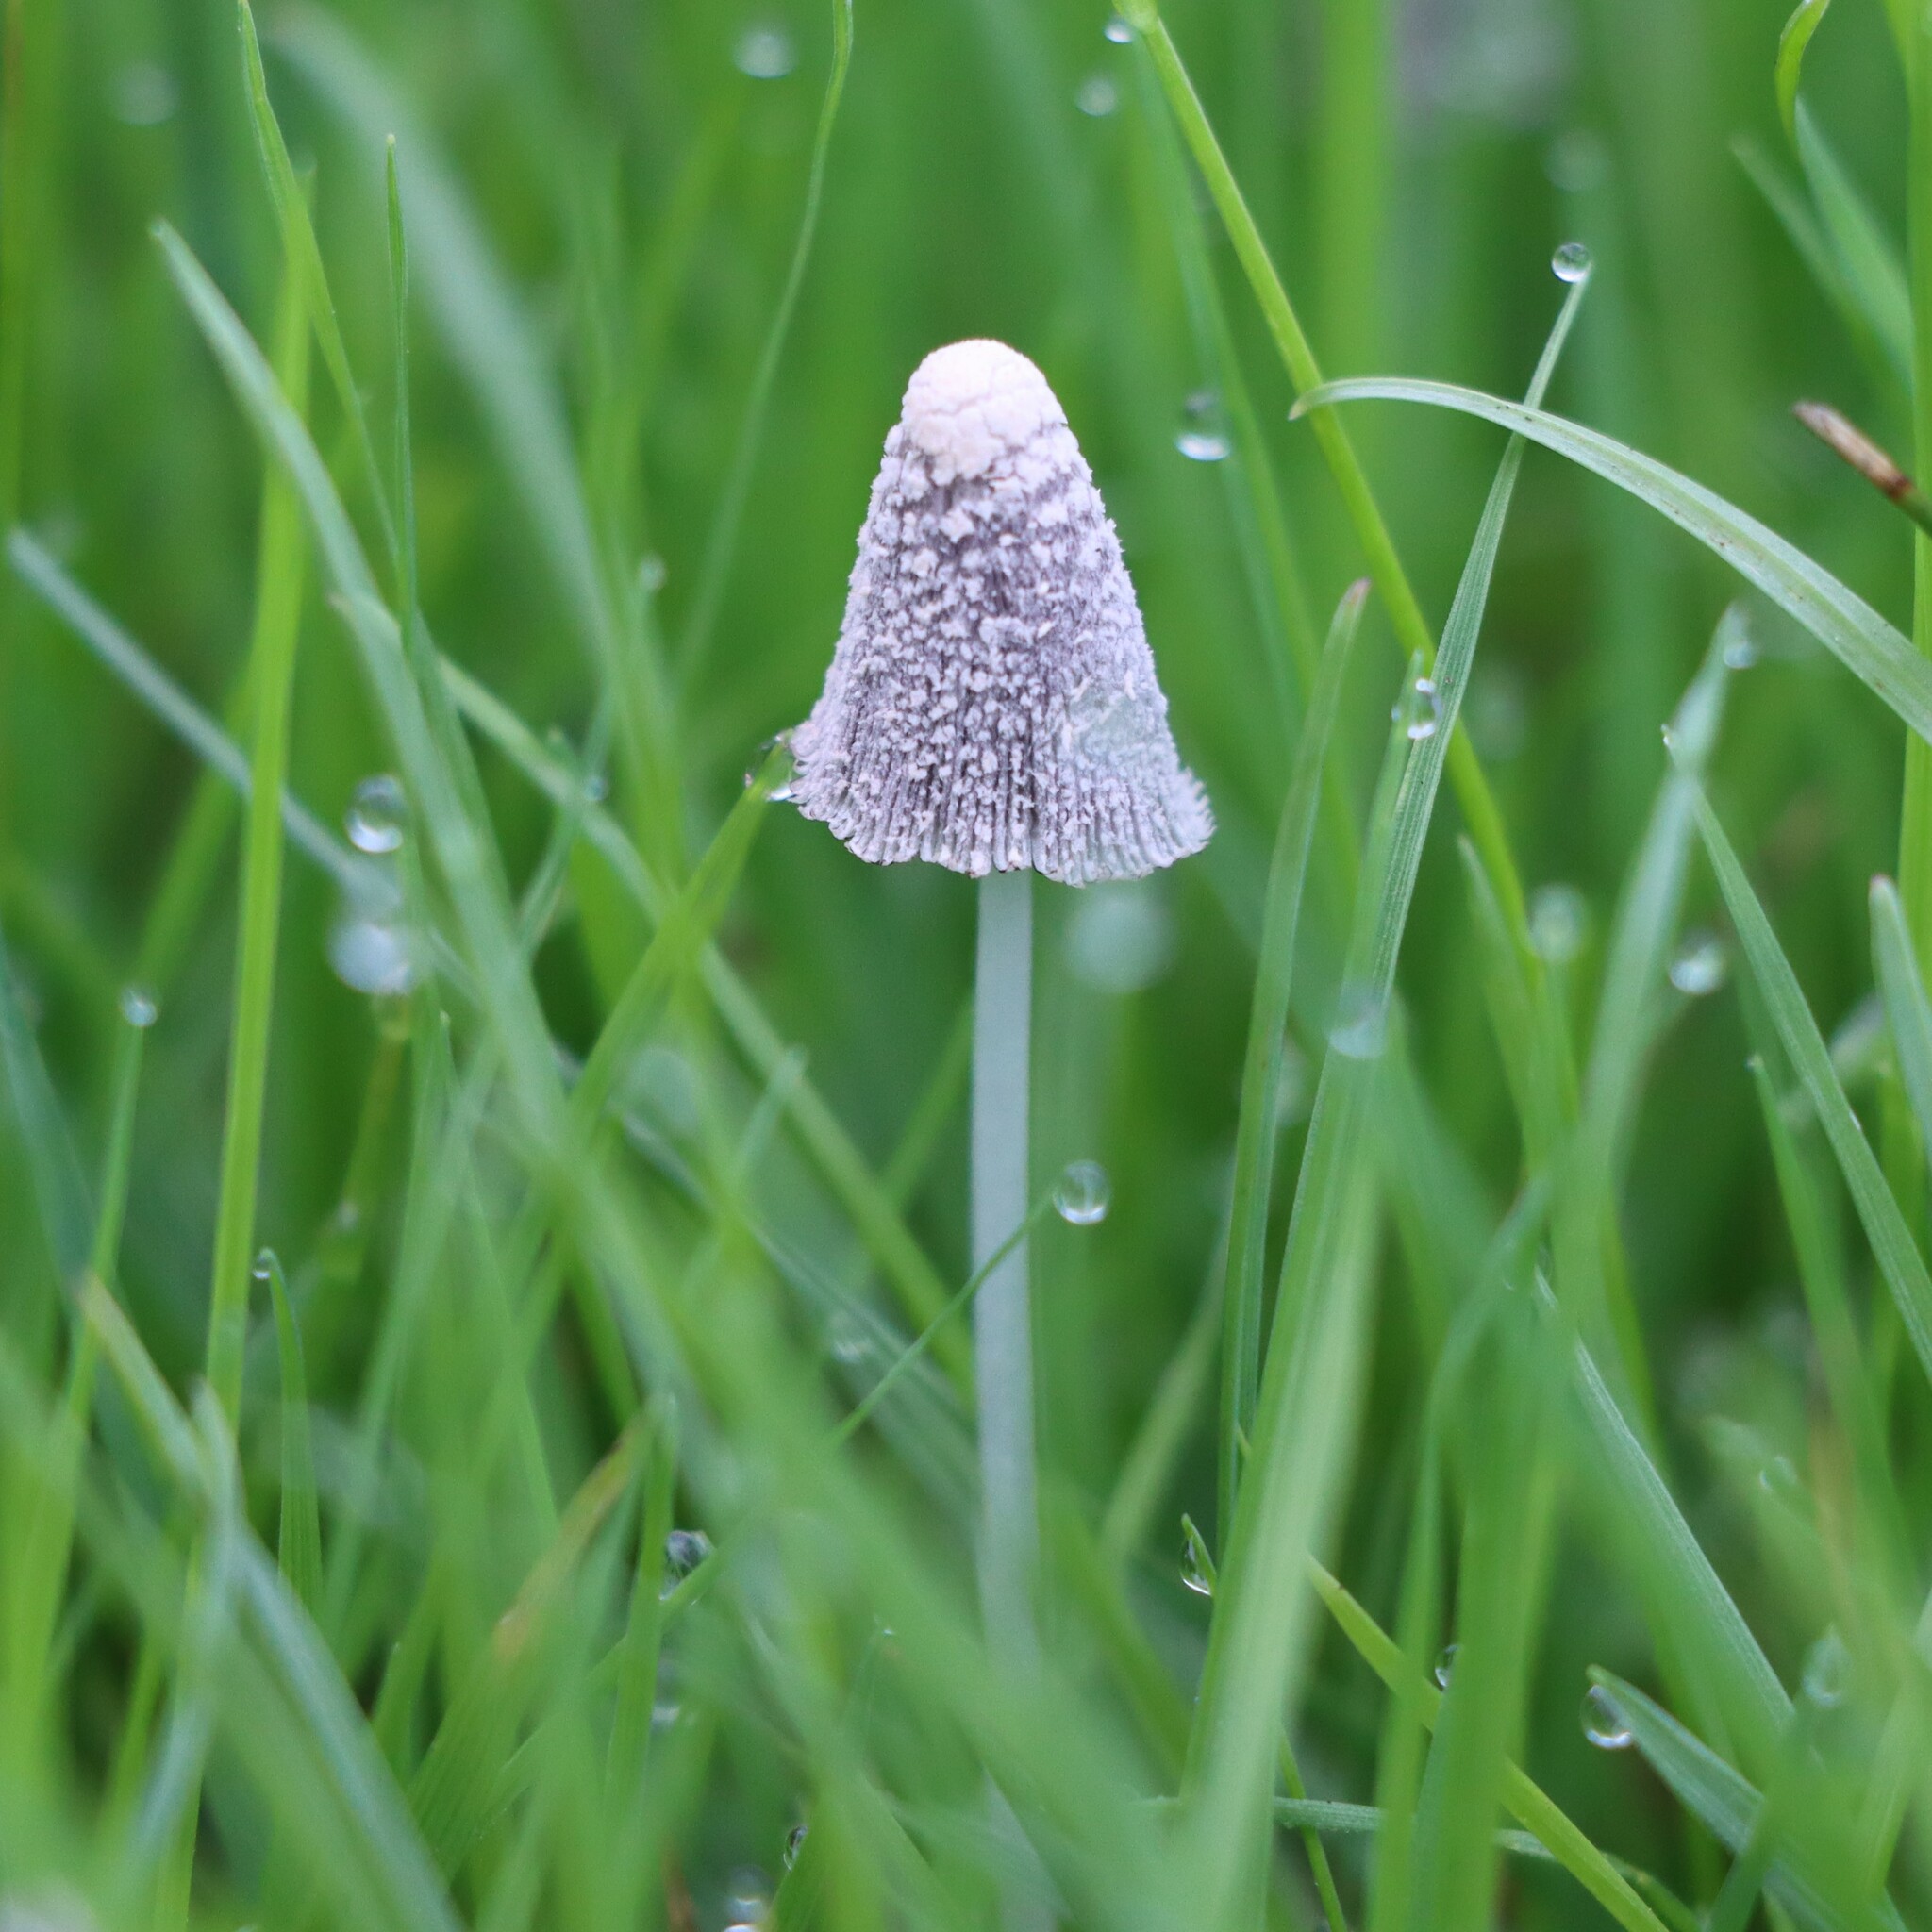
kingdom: Fungi
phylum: Basidiomycota
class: Agaricomycetes
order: Agaricales
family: Psathyrellaceae
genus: Coprinopsis
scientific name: Coprinopsis friesii
